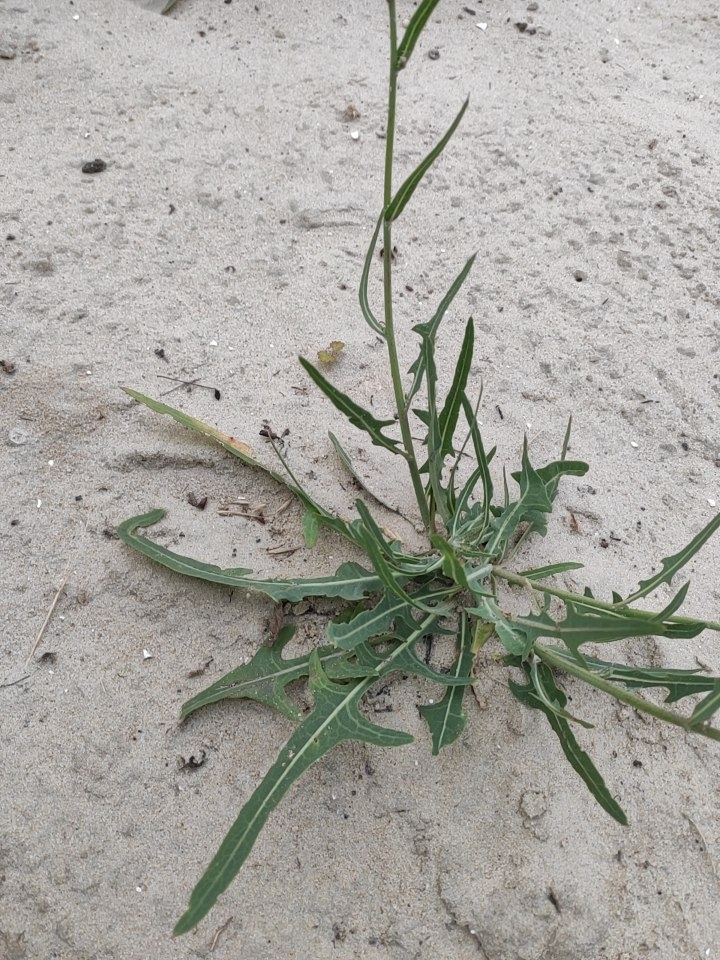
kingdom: Plantae
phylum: Tracheophyta
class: Magnoliopsida
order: Asterales
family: Asteraceae
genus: Lactuca
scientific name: Lactuca tatarica
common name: Blue lettuce
